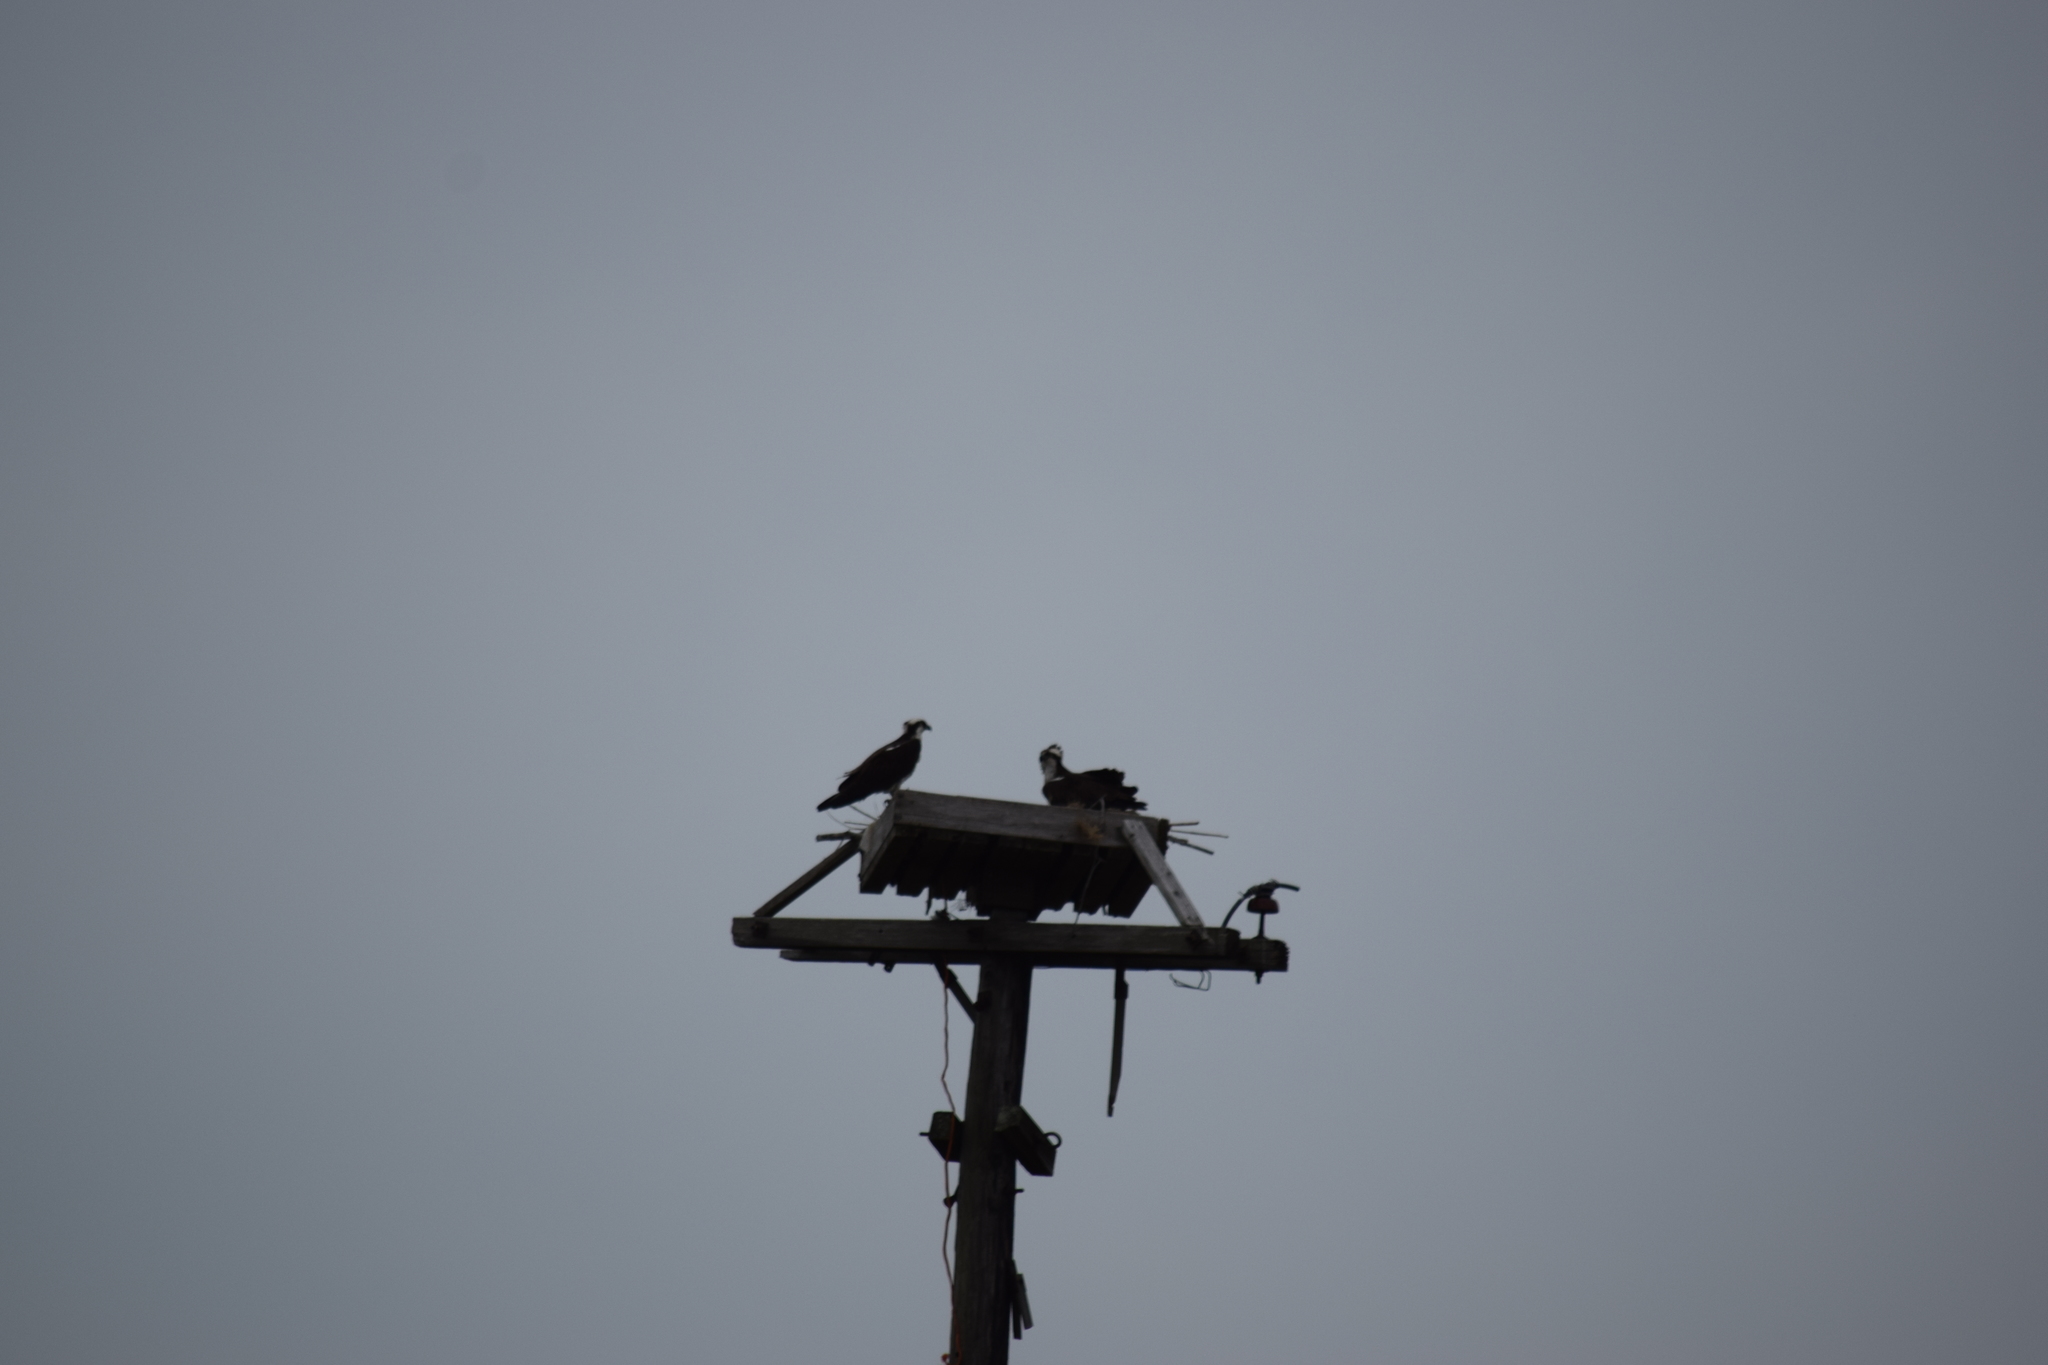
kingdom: Animalia
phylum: Chordata
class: Aves
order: Accipitriformes
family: Pandionidae
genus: Pandion
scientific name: Pandion haliaetus
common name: Osprey
